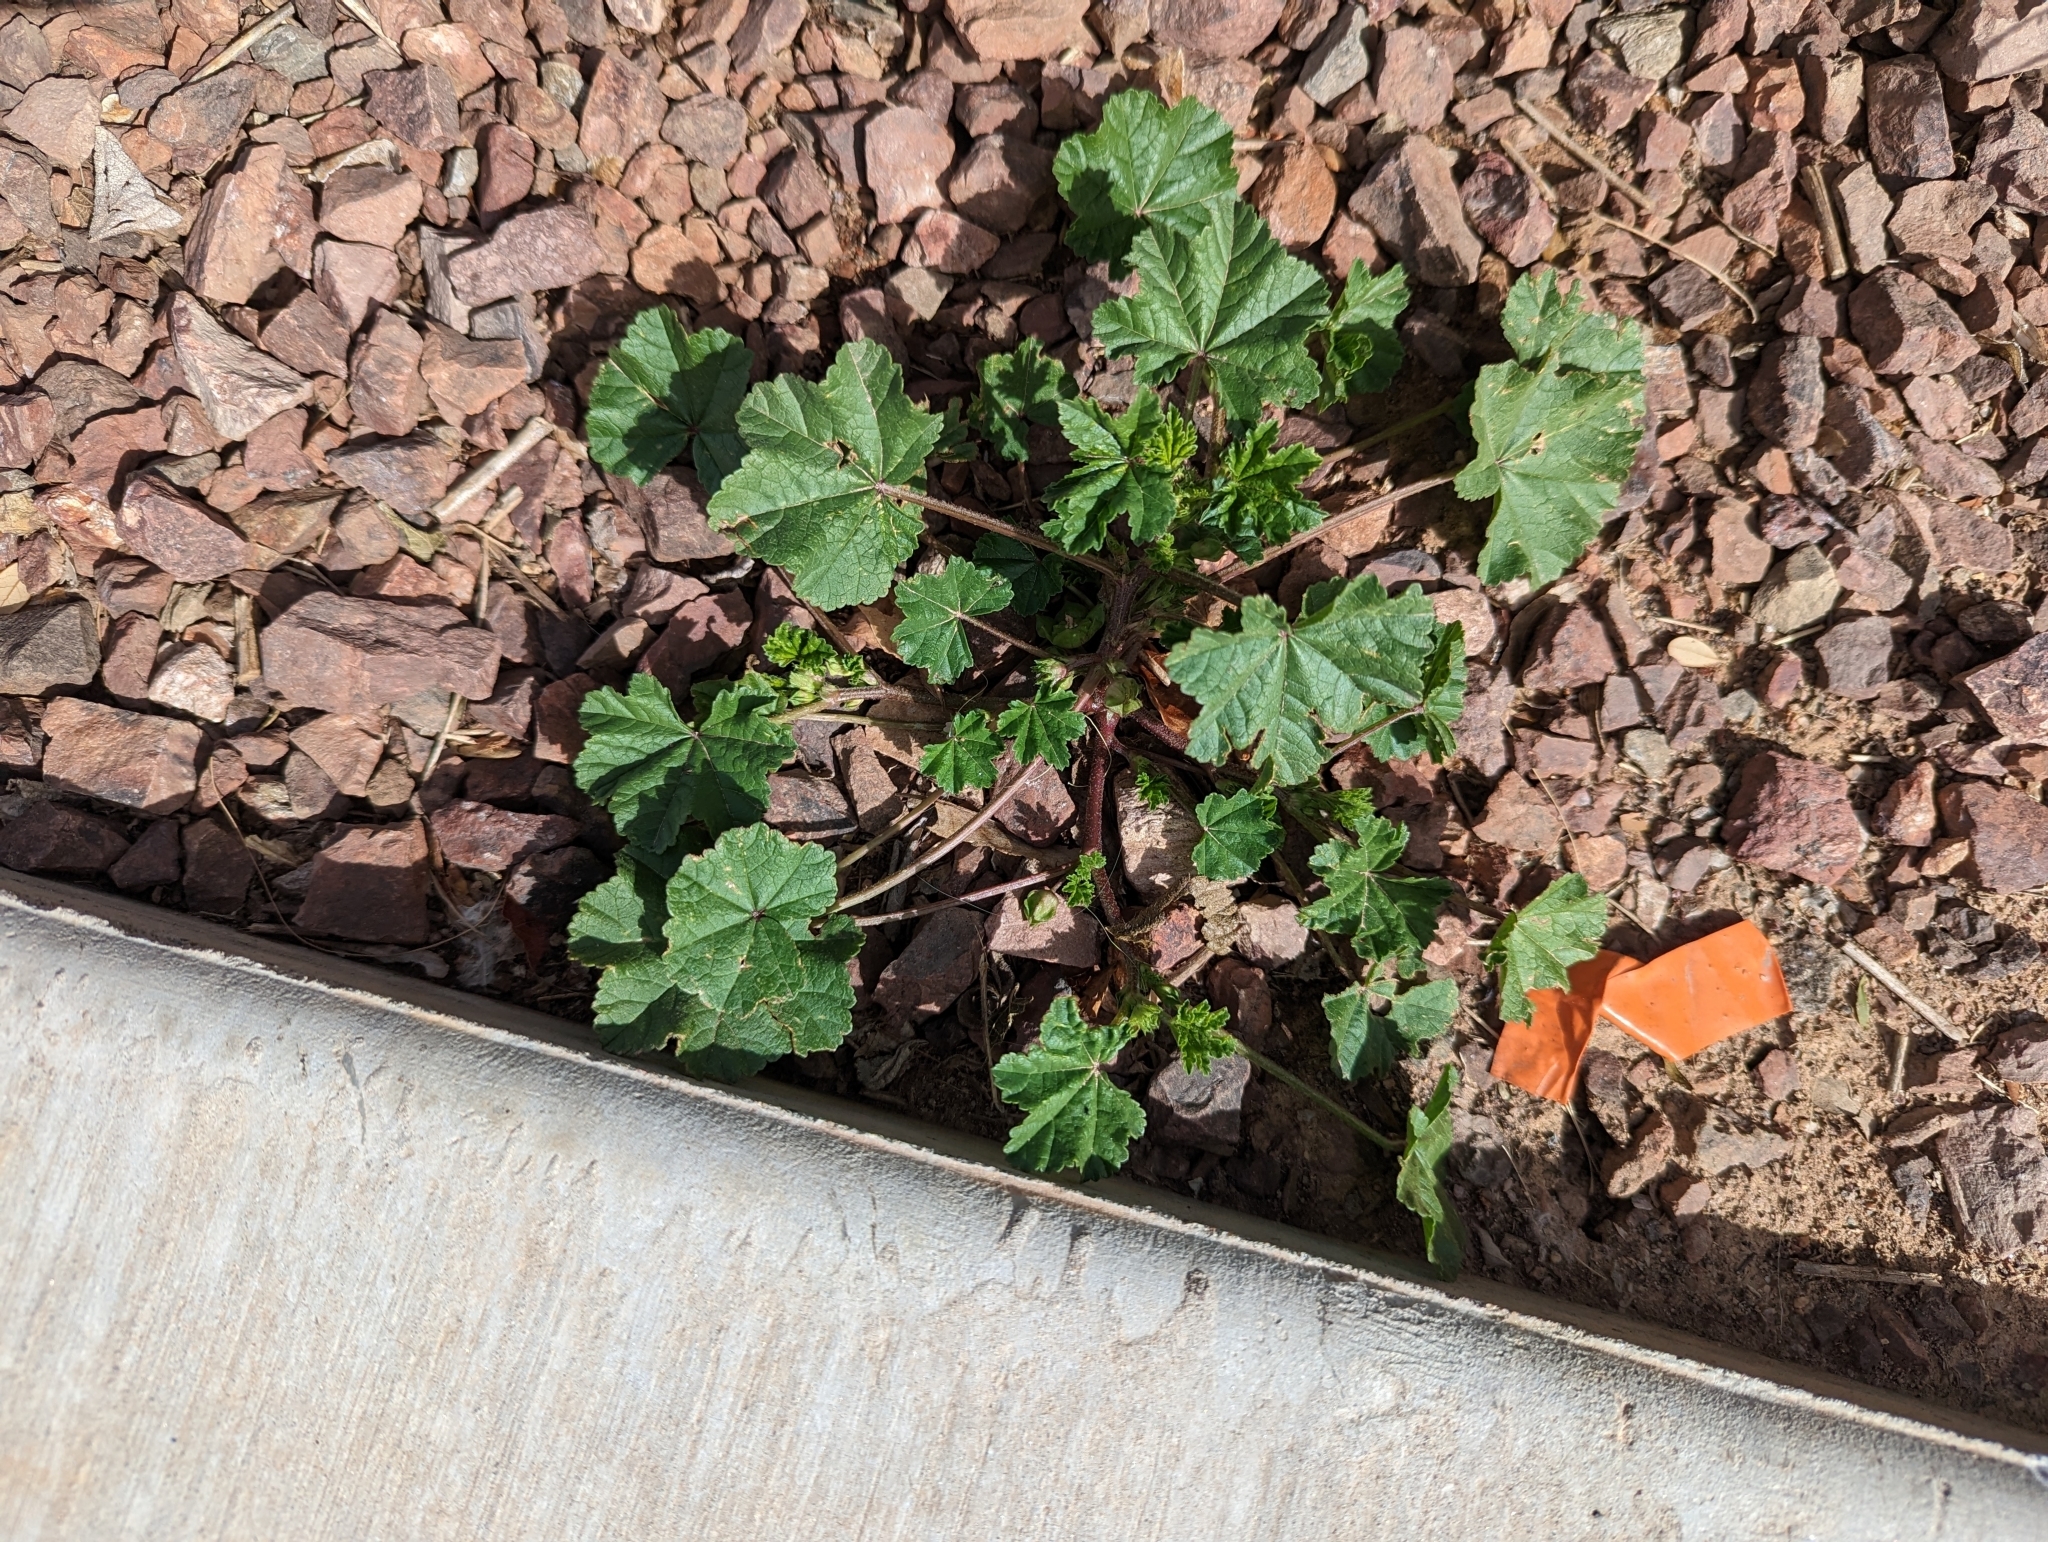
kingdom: Plantae
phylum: Tracheophyta
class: Magnoliopsida
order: Malvales
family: Malvaceae
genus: Malva
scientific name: Malva parviflora
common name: Least mallow
